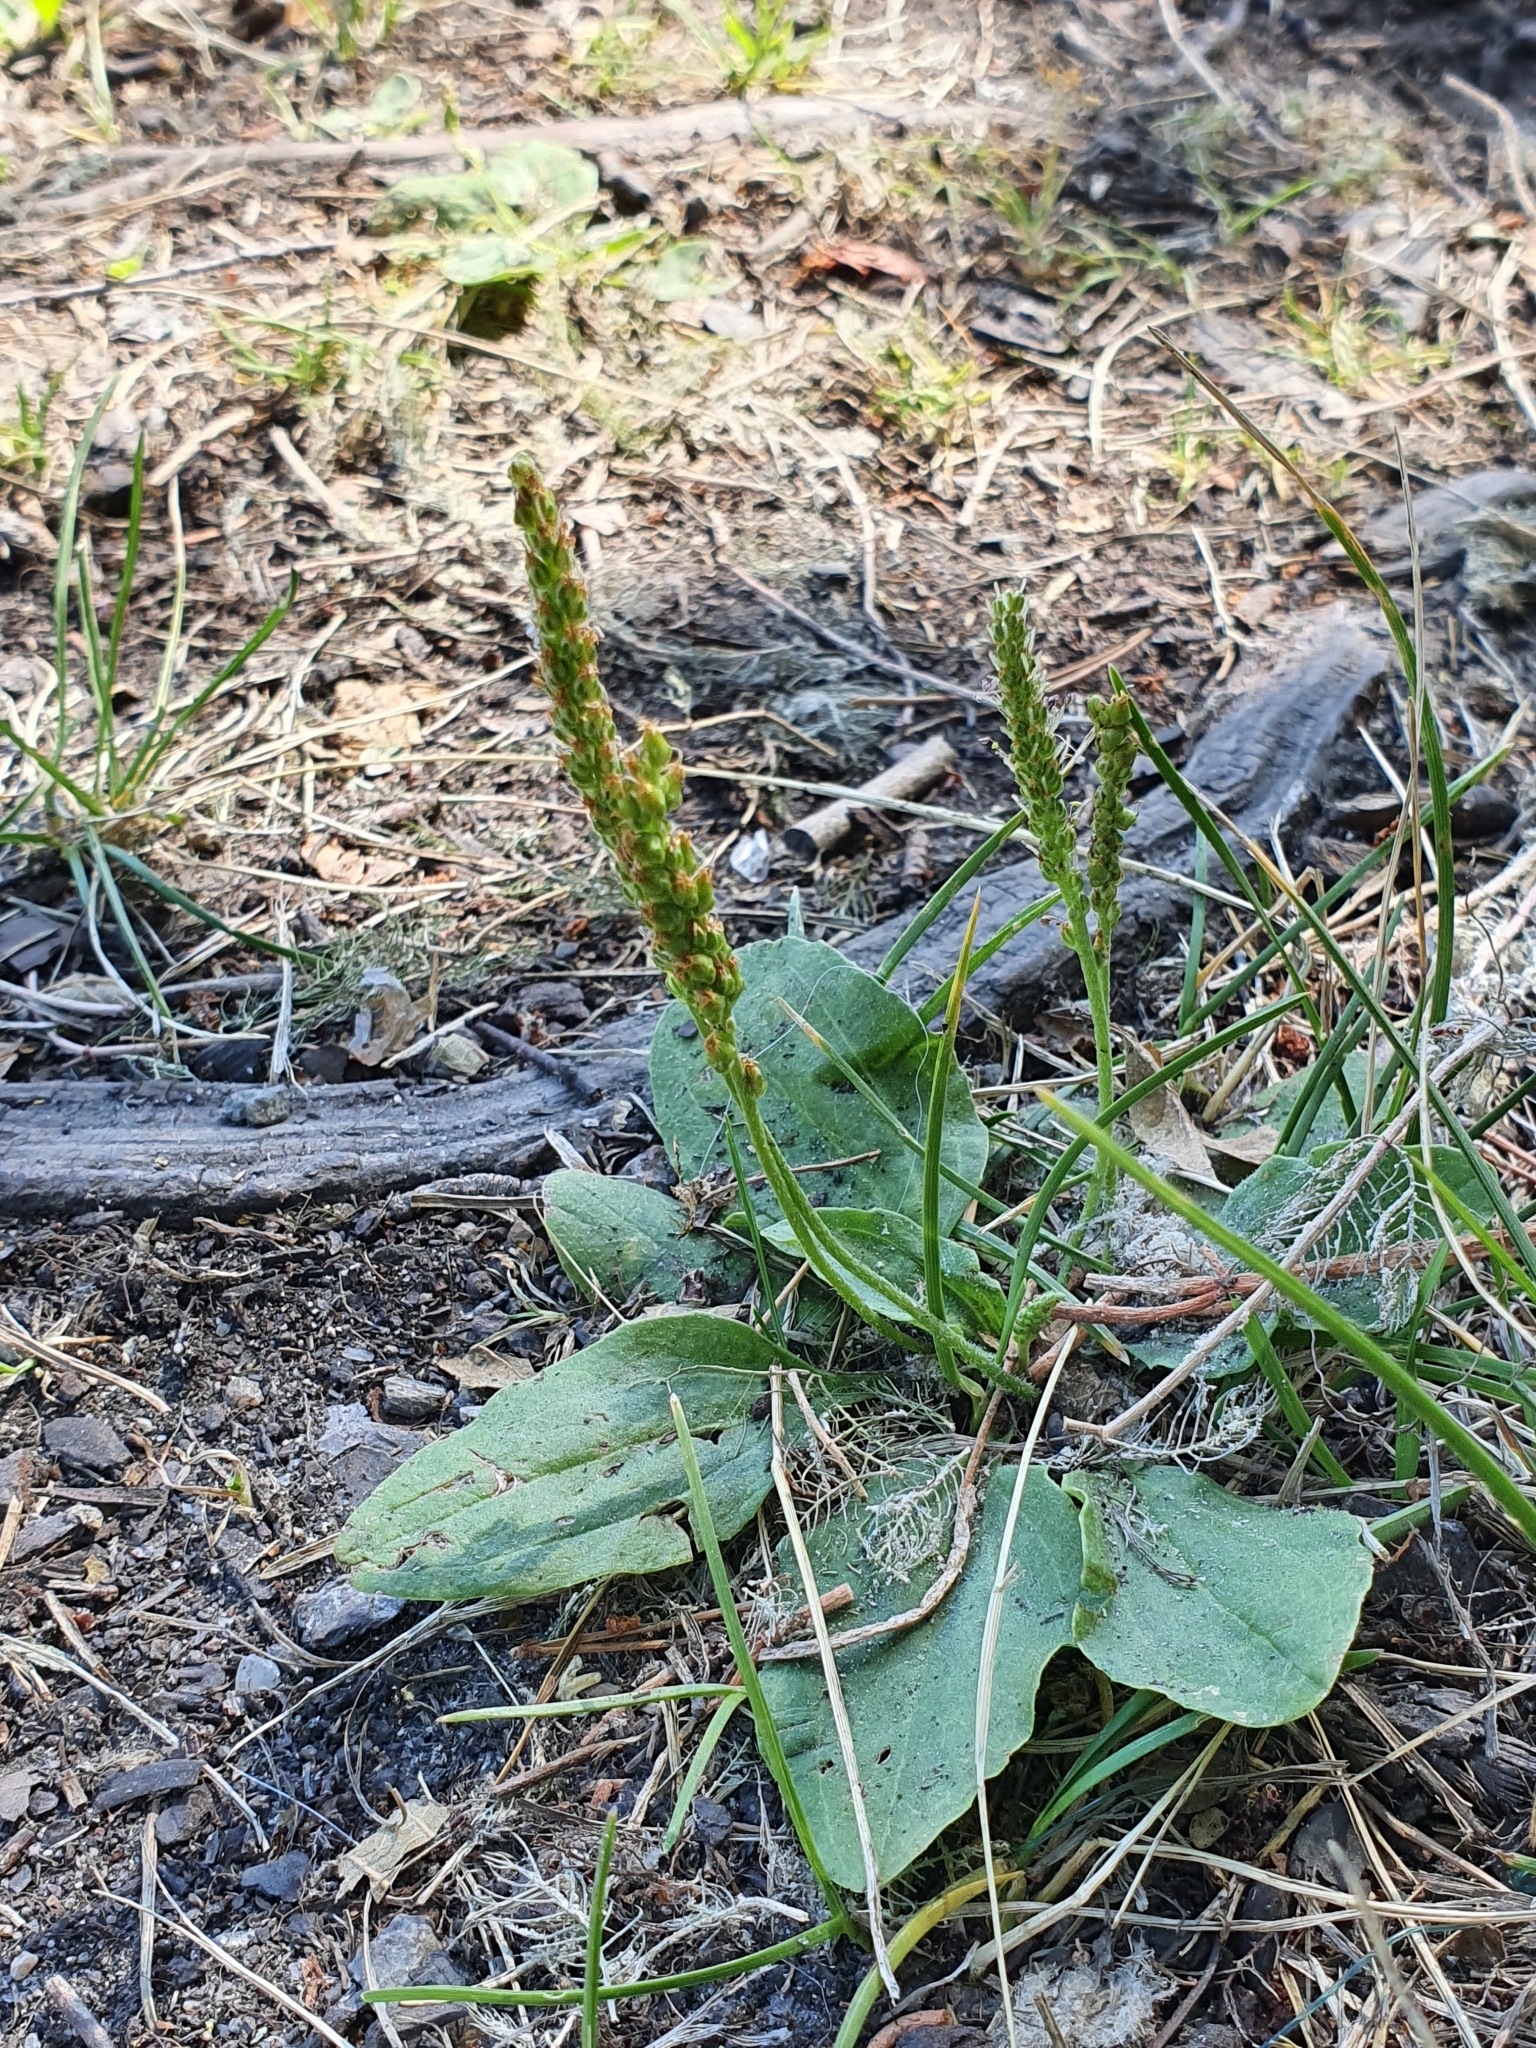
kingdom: Plantae
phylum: Tracheophyta
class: Magnoliopsida
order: Lamiales
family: Plantaginaceae
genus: Plantago
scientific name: Plantago major
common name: Common plantain
